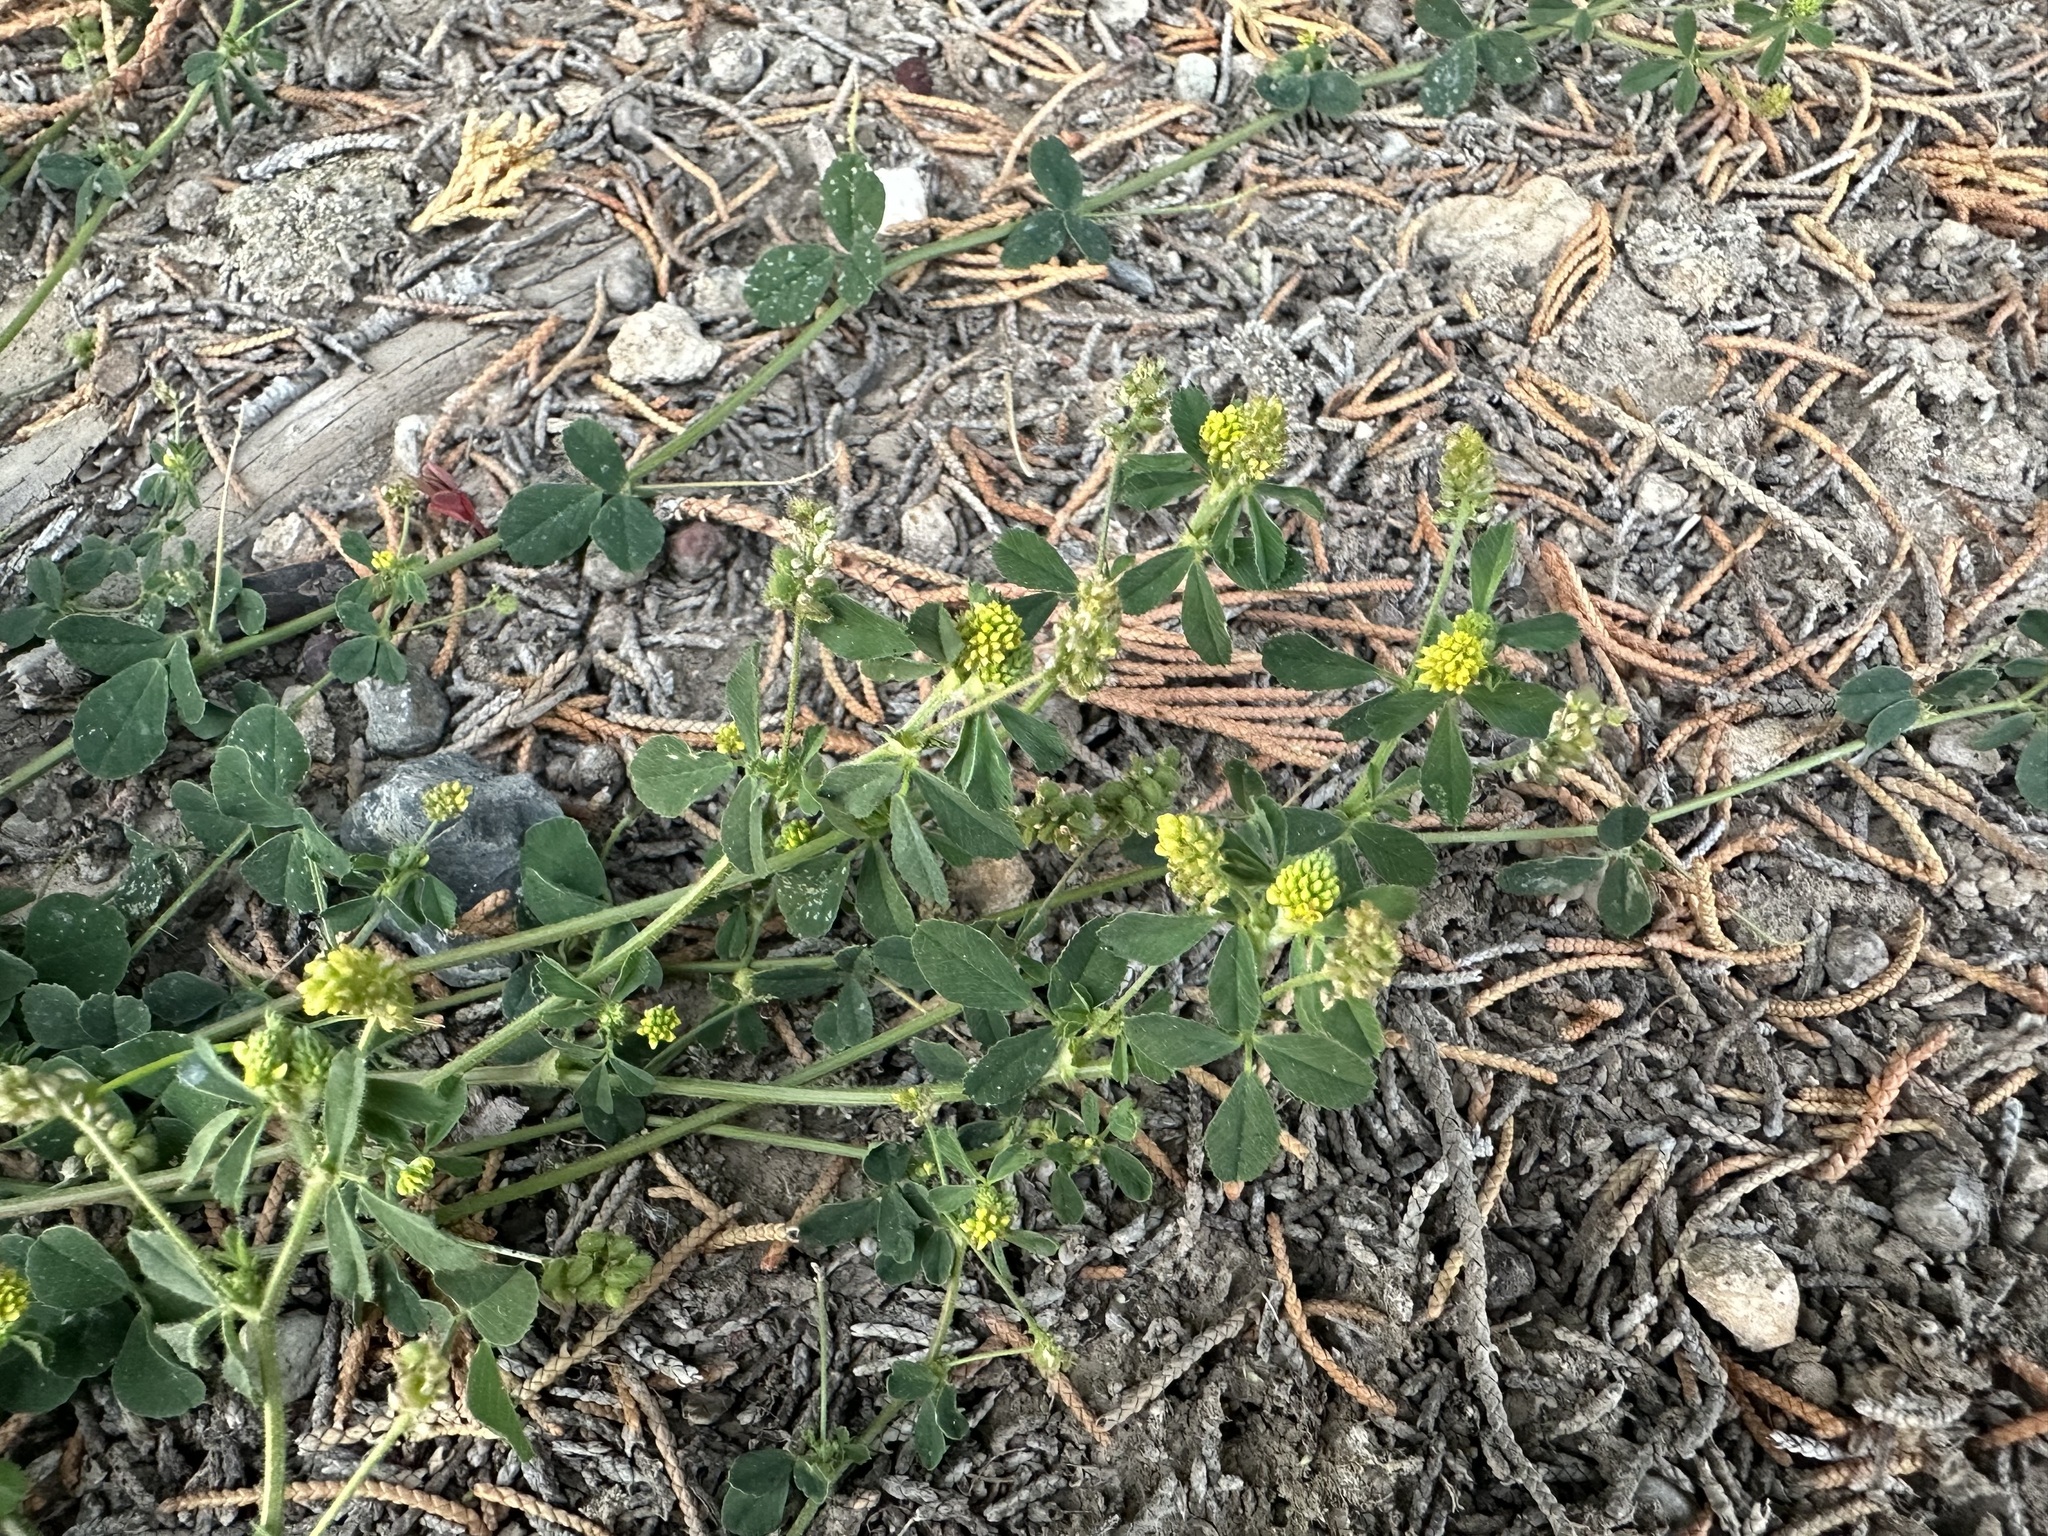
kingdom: Plantae
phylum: Tracheophyta
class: Magnoliopsida
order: Fabales
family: Fabaceae
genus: Medicago
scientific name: Medicago lupulina
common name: Black medick
